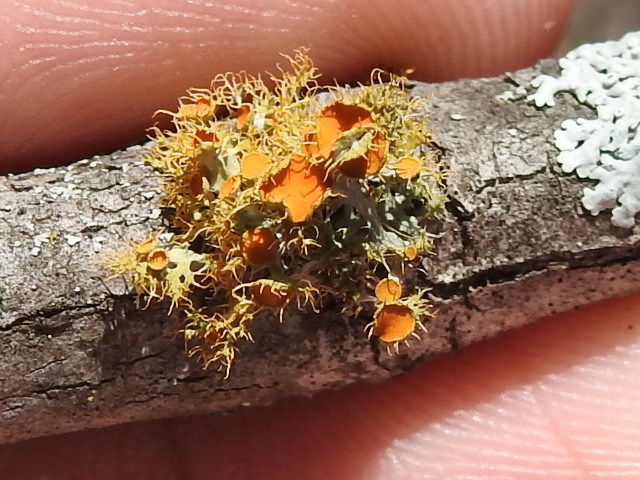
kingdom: Fungi
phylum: Ascomycota
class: Lecanoromycetes
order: Teloschistales
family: Teloschistaceae
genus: Niorma
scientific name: Niorma chrysophthalma
